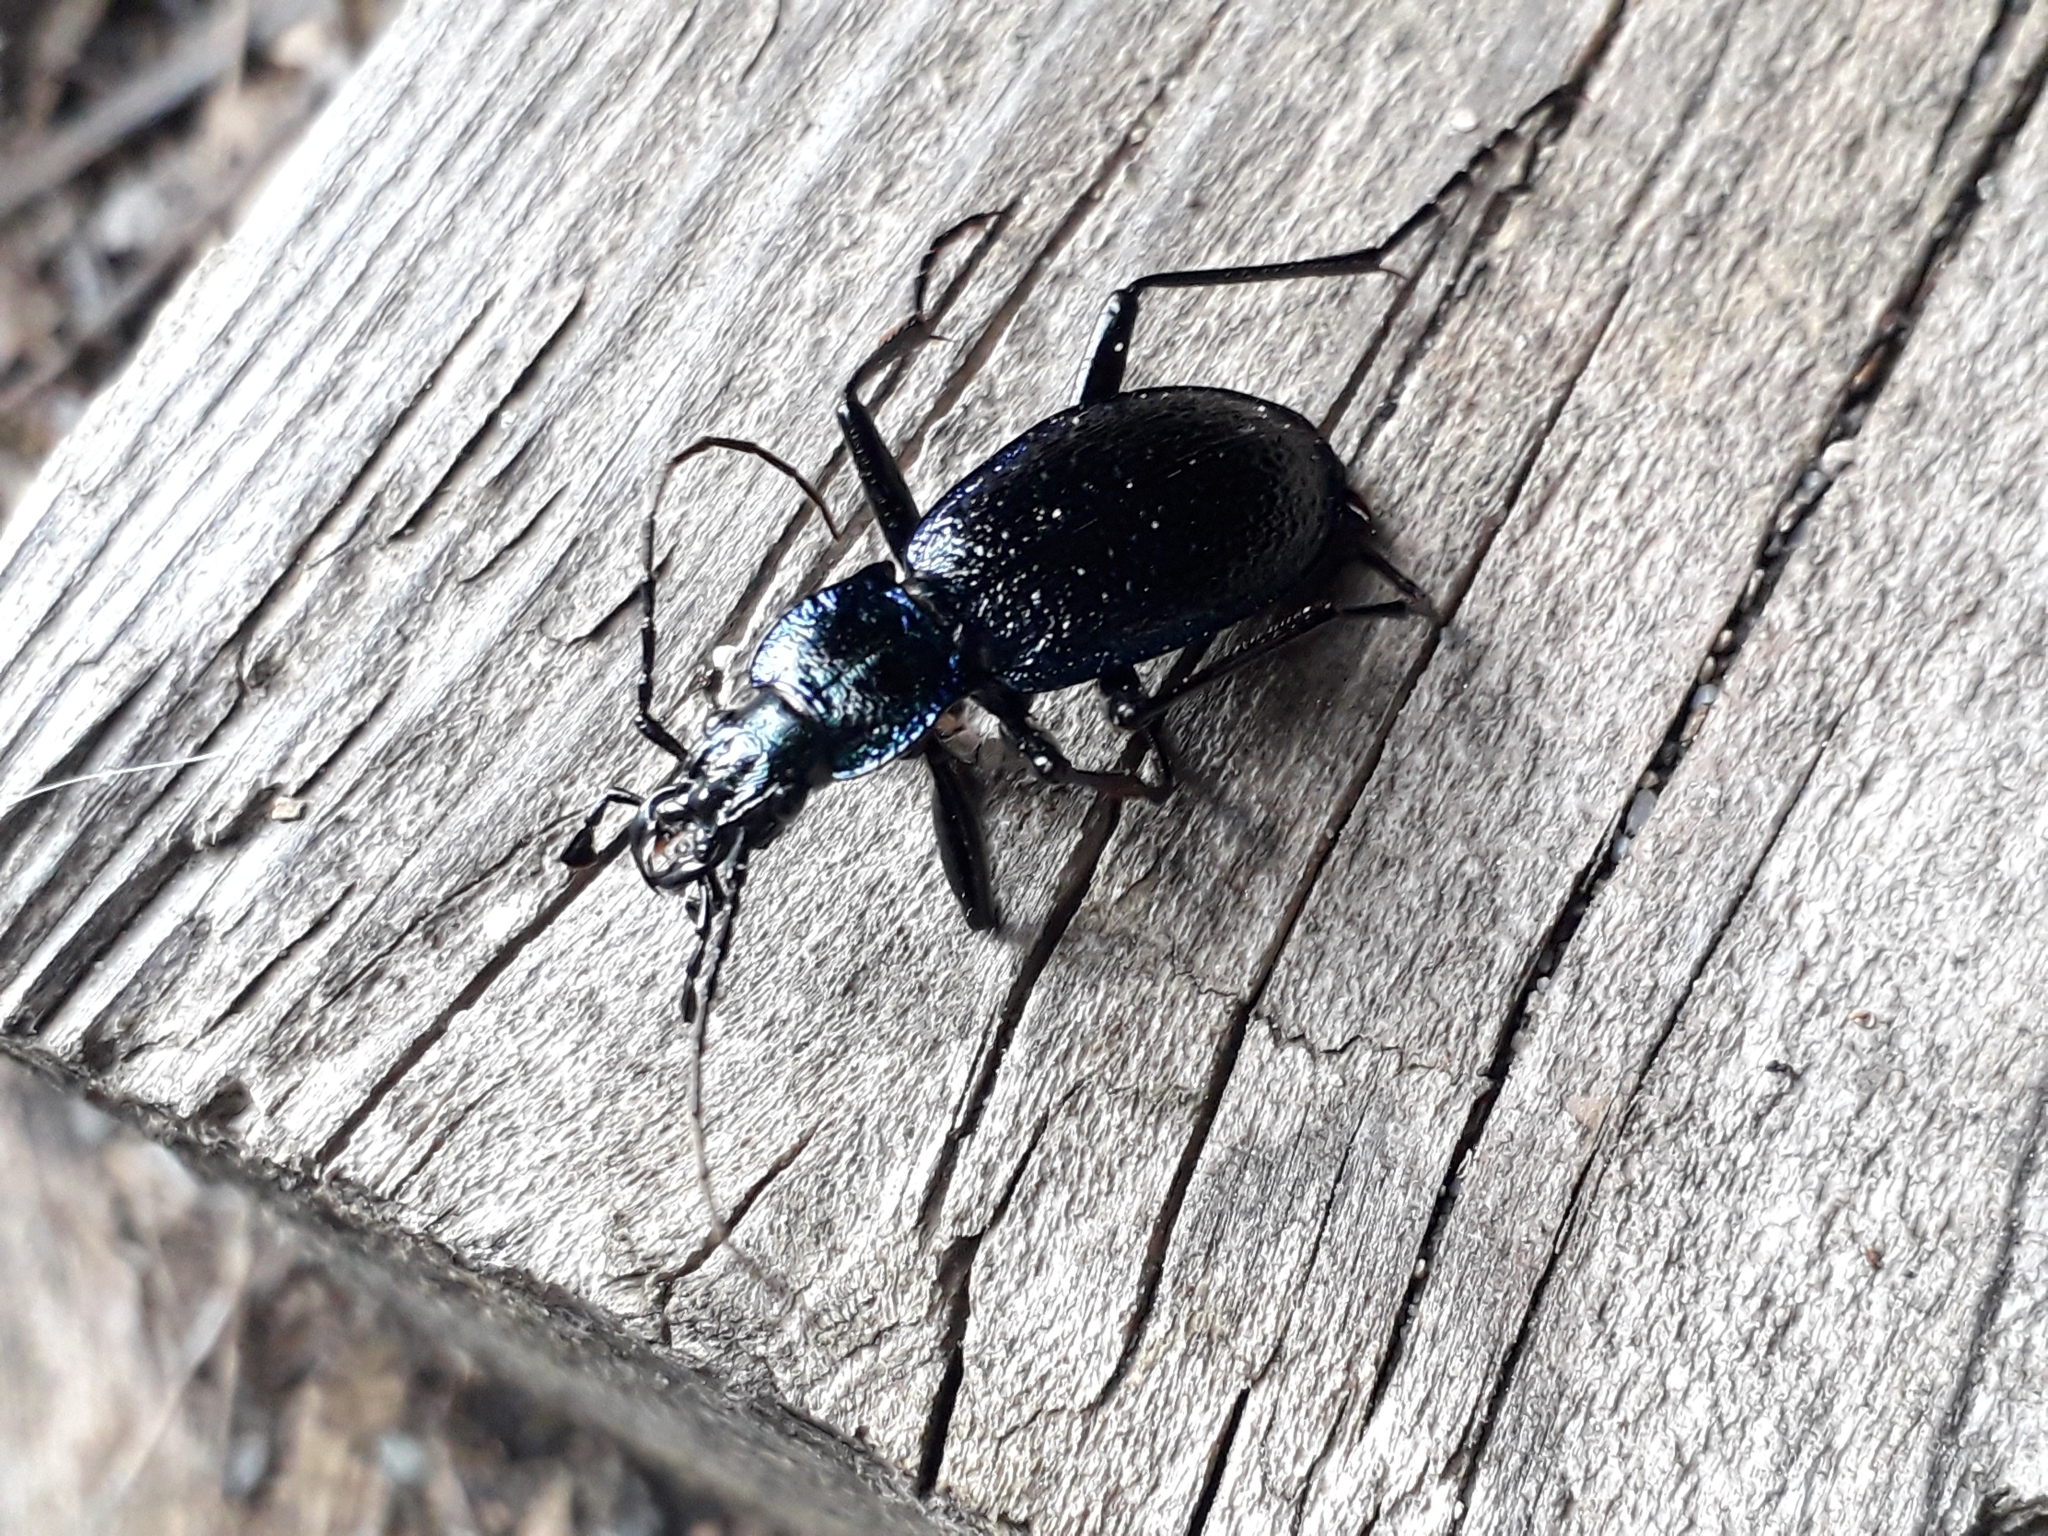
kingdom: Animalia
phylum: Arthropoda
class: Insecta
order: Coleoptera
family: Carabidae
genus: Carabus
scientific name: Carabus intricatus
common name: Blue ground beetle
